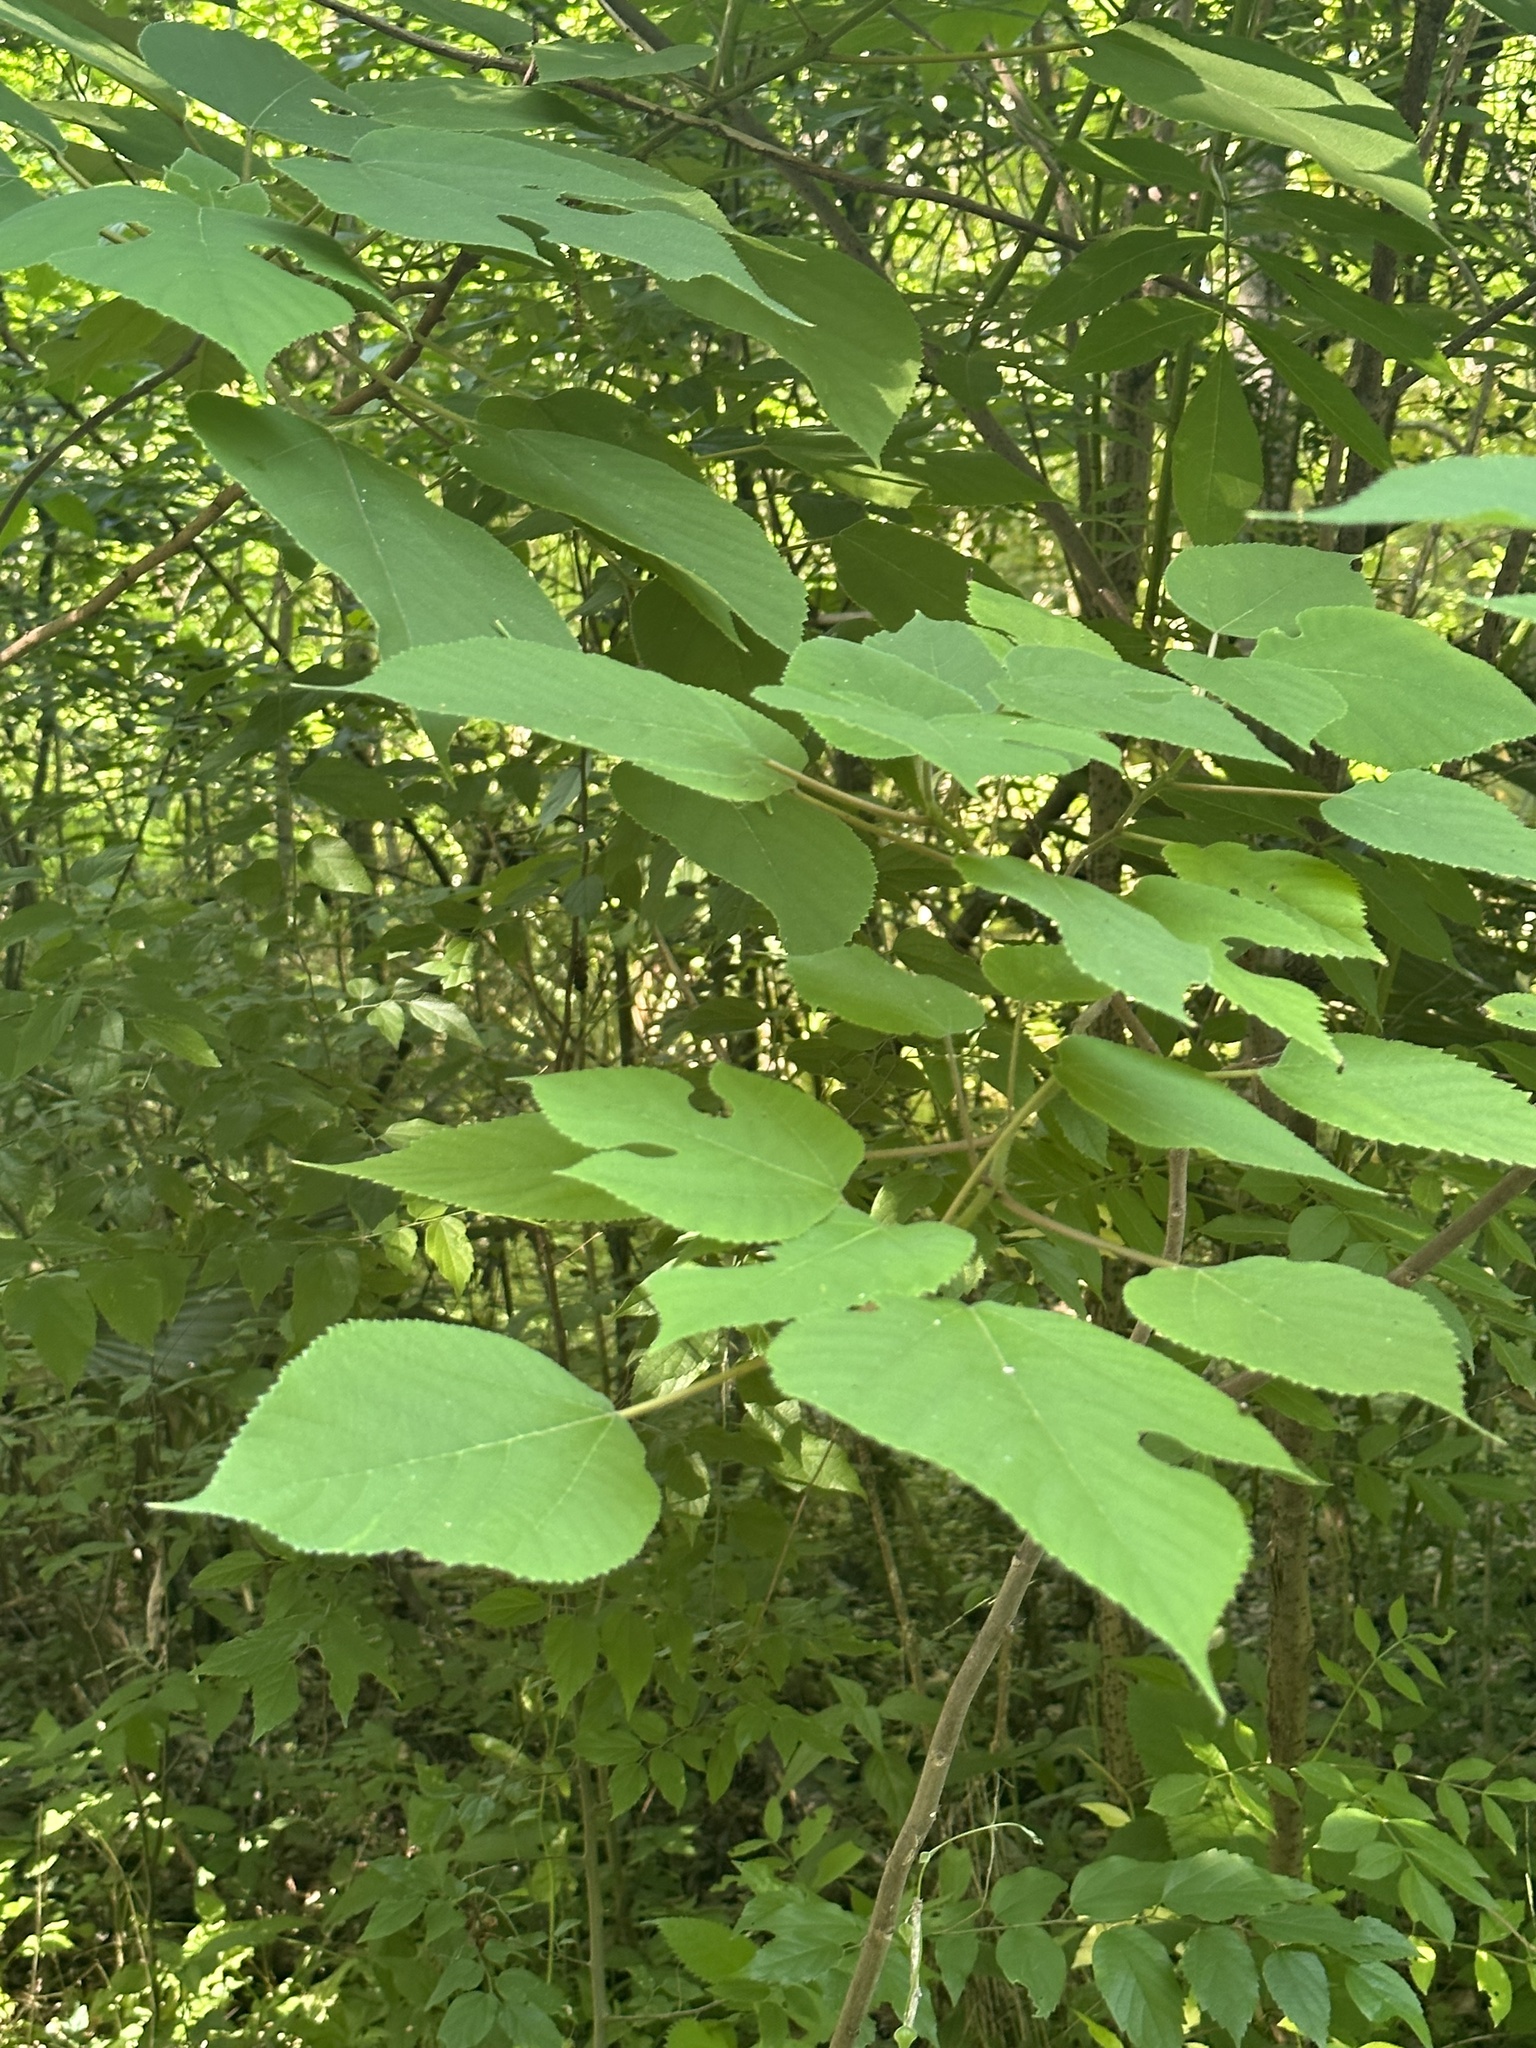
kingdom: Plantae
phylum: Tracheophyta
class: Magnoliopsida
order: Rosales
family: Moraceae
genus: Broussonetia
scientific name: Broussonetia papyrifera
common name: Paper mulberry
